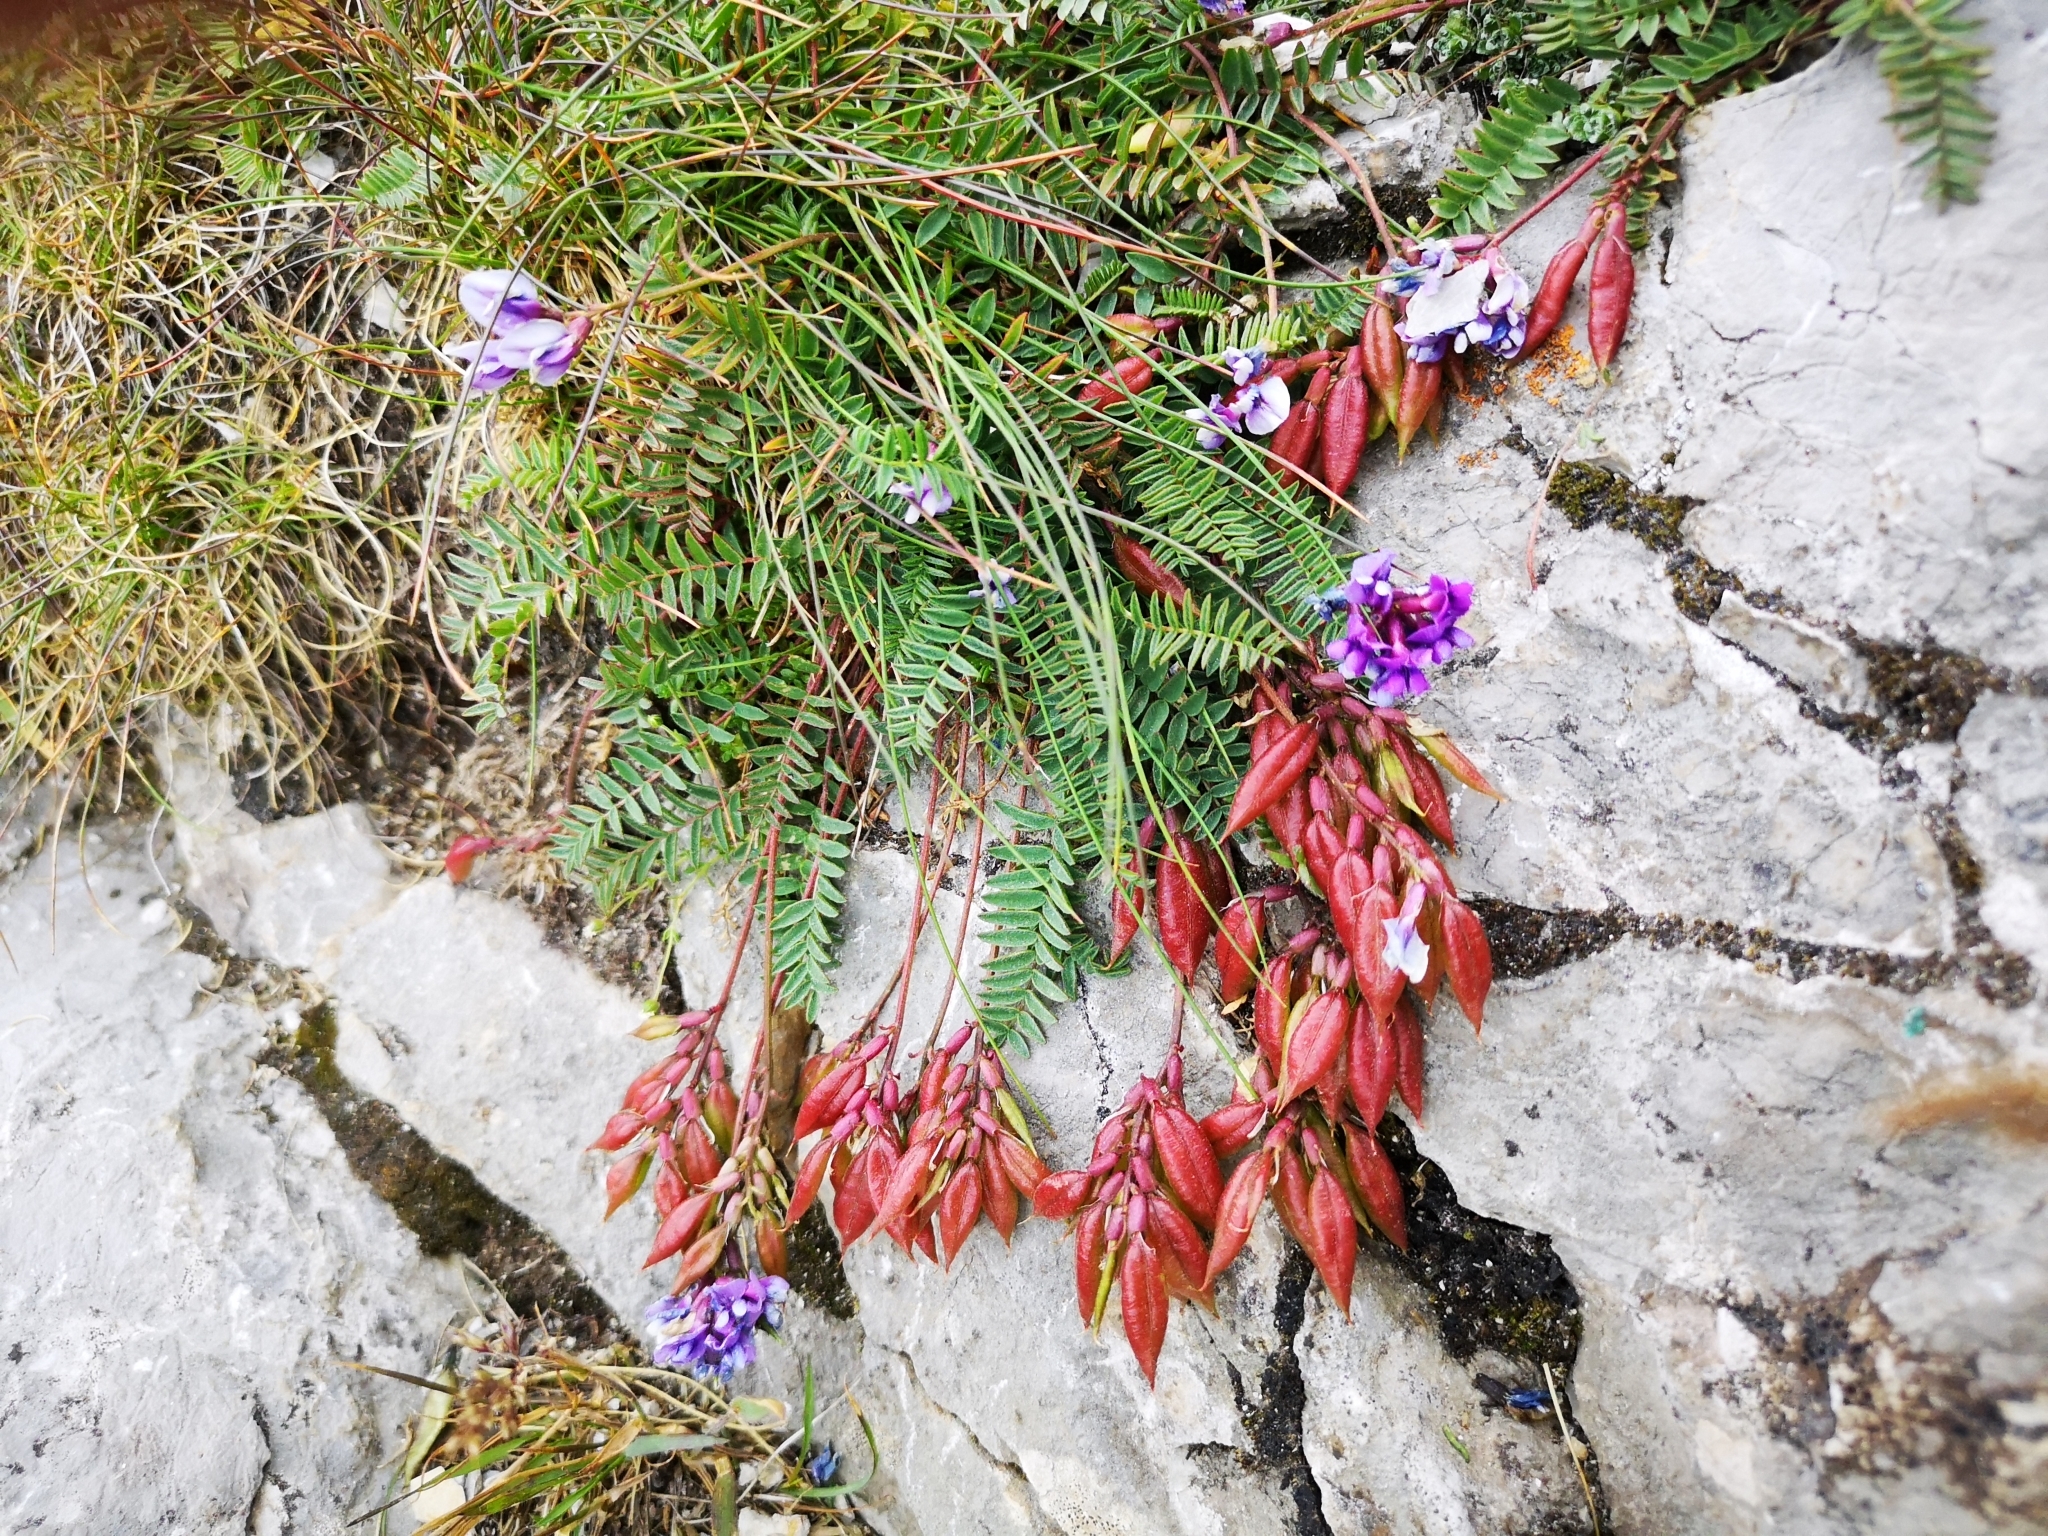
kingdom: Plantae
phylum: Tracheophyta
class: Magnoliopsida
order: Fabales
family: Fabaceae
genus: Oxytropis
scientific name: Oxytropis carpatica
